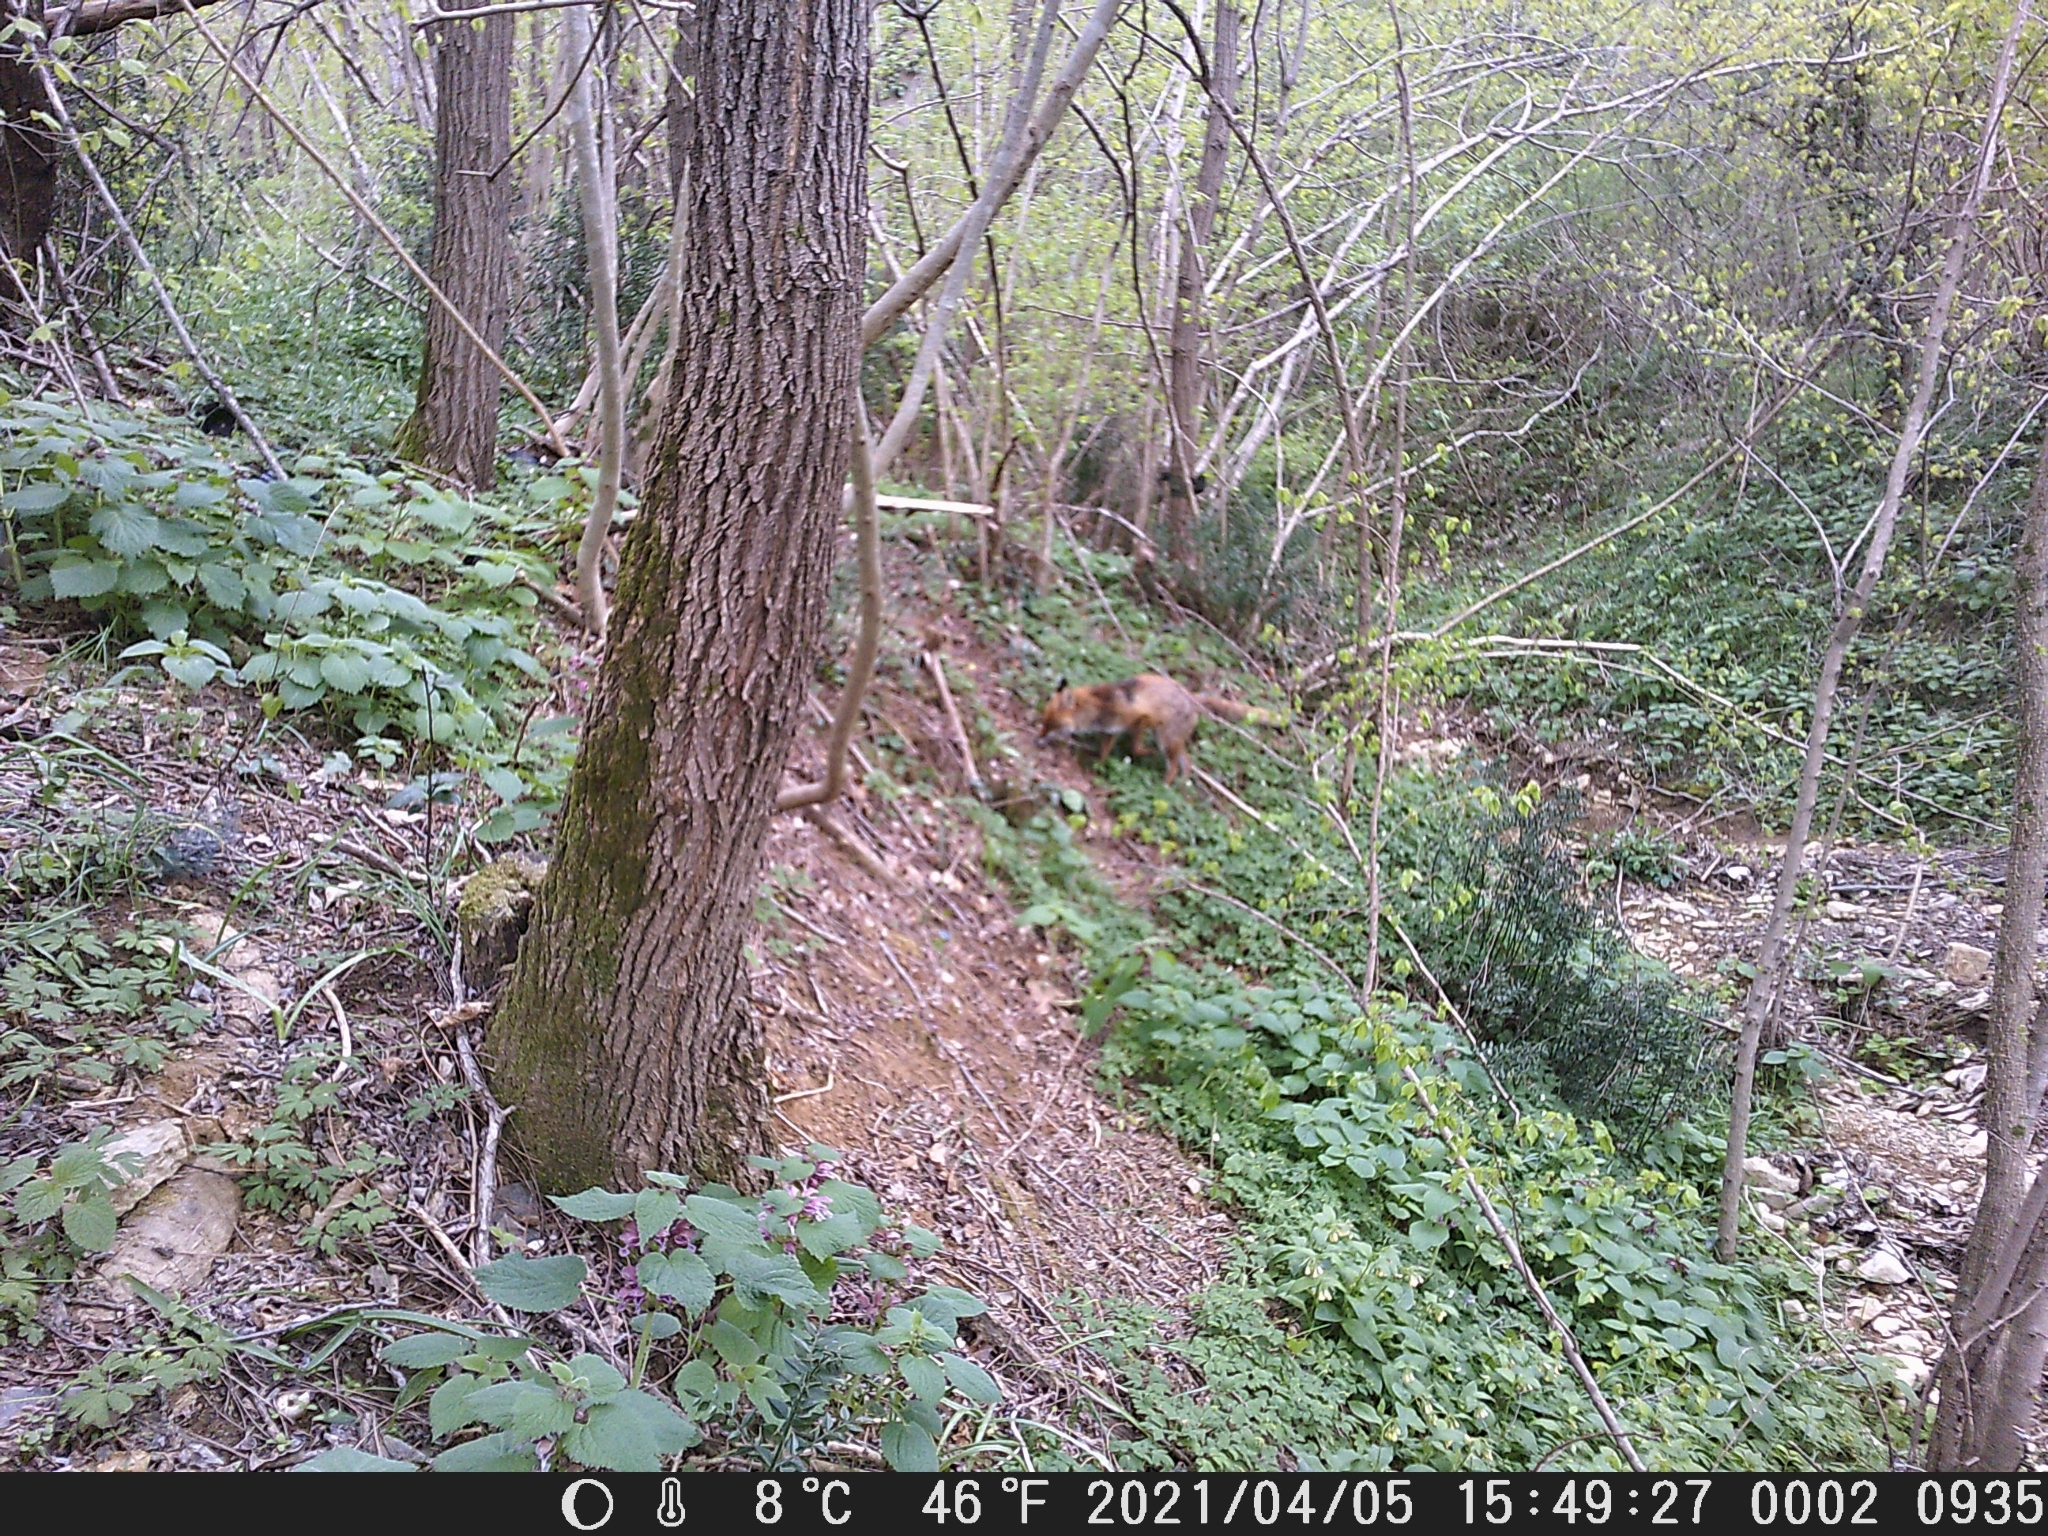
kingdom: Animalia
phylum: Chordata
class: Mammalia
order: Carnivora
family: Canidae
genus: Vulpes
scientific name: Vulpes vulpes
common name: Red fox
